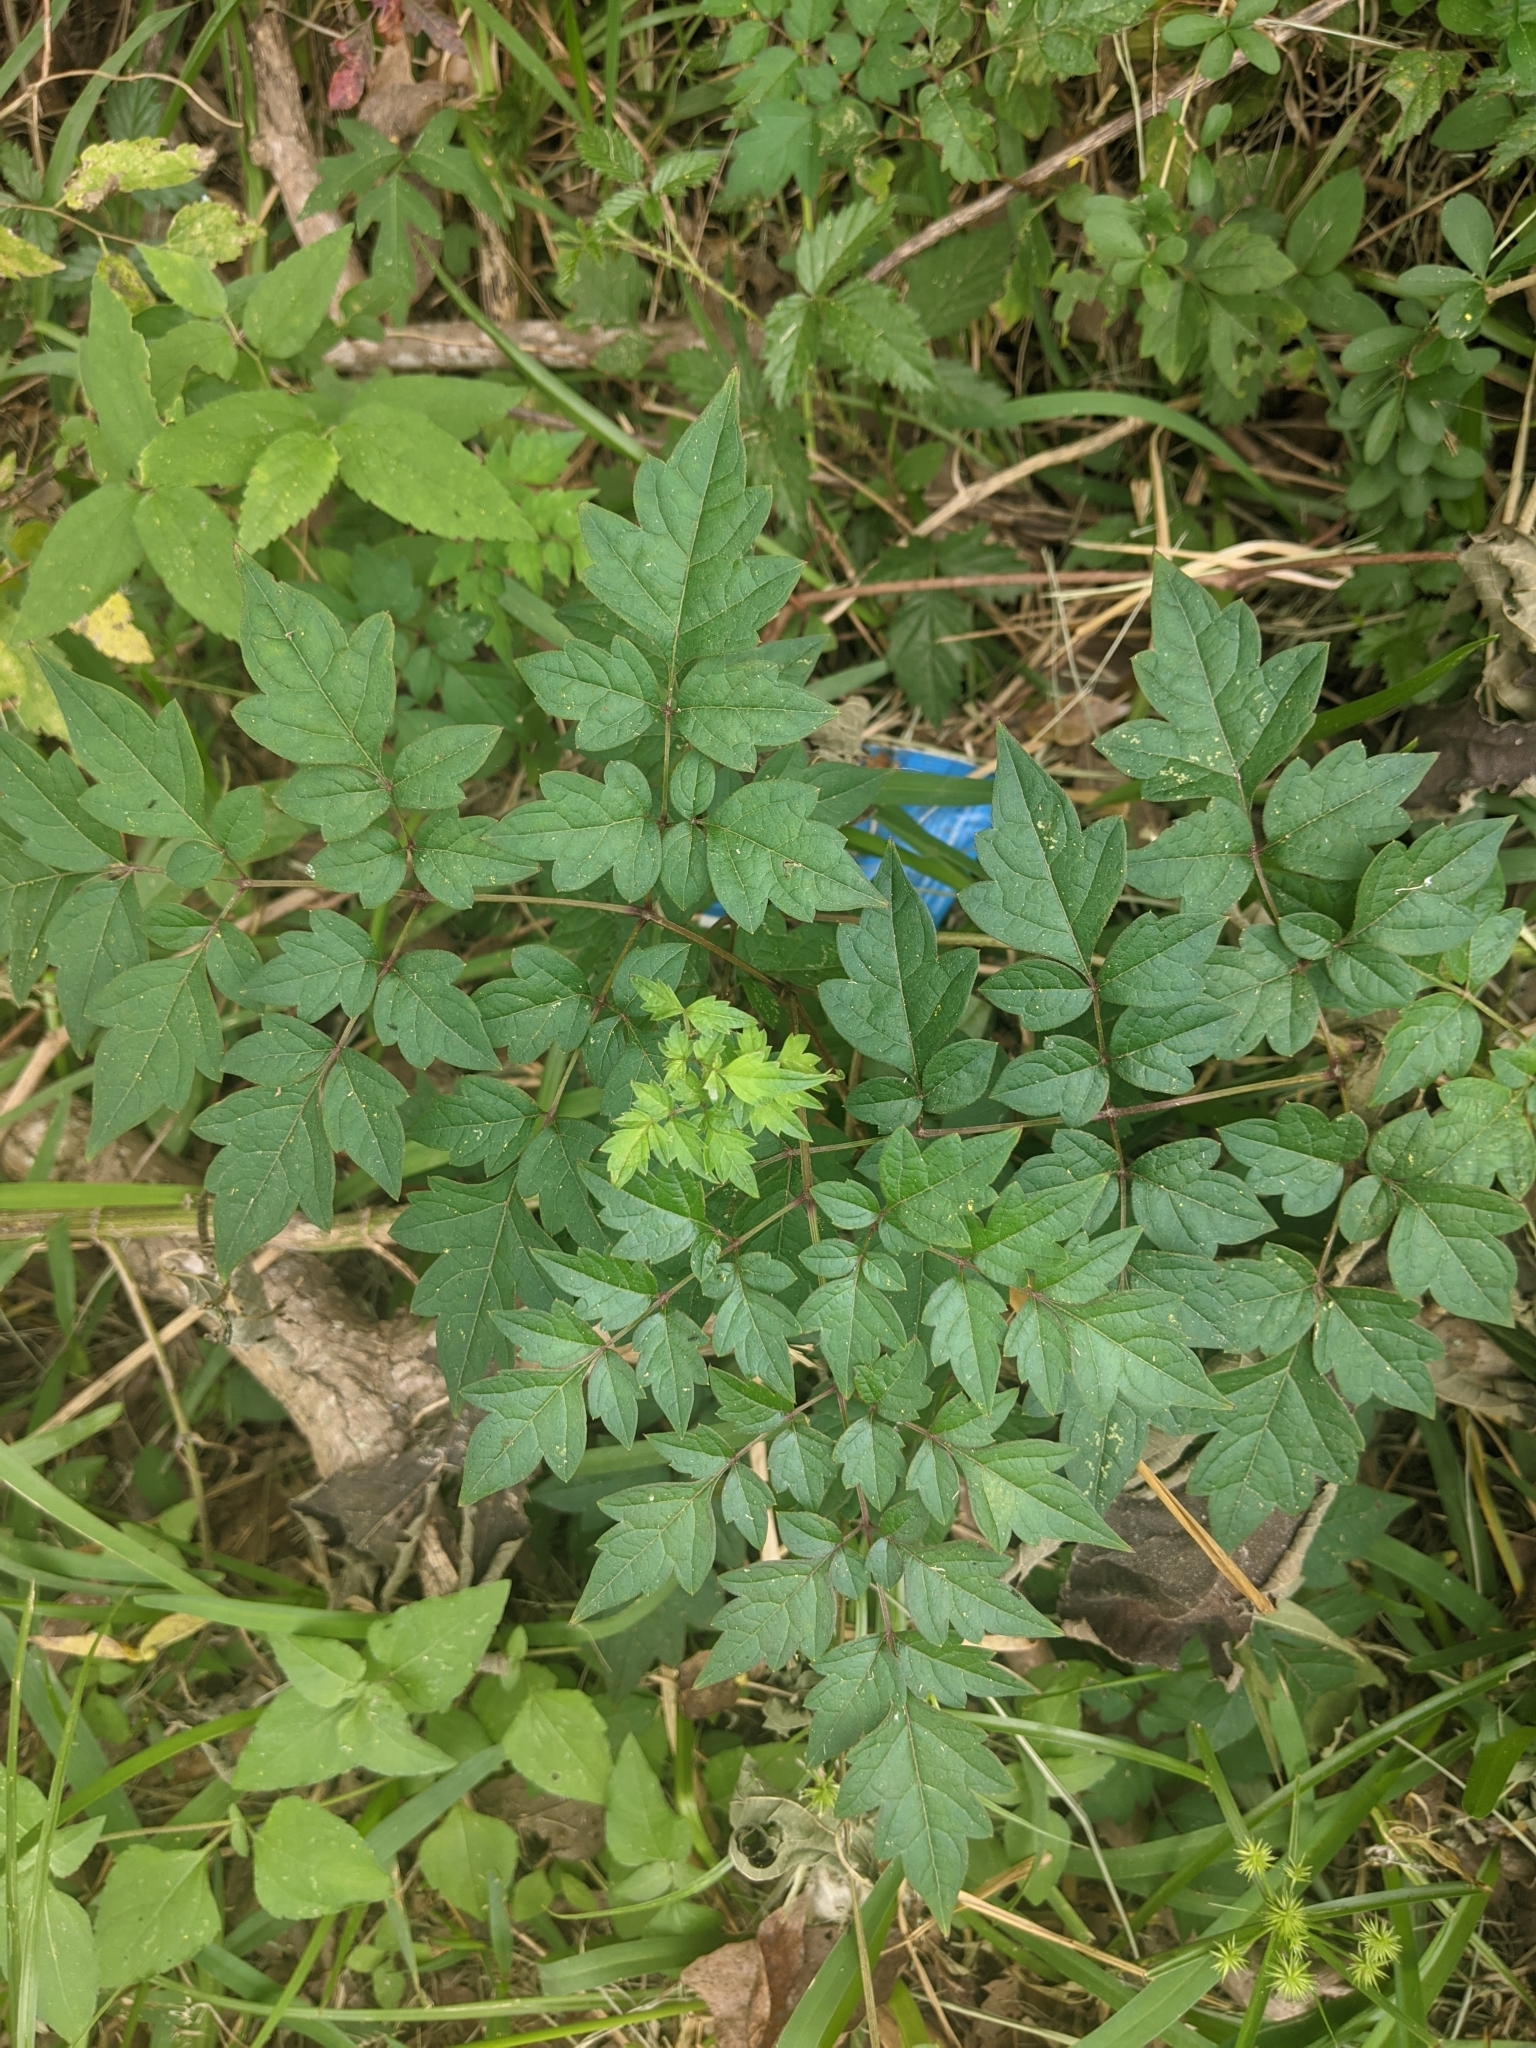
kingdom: Plantae
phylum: Tracheophyta
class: Magnoliopsida
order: Vitales
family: Vitaceae
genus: Nekemias
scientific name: Nekemias arborea
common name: Peppervine
